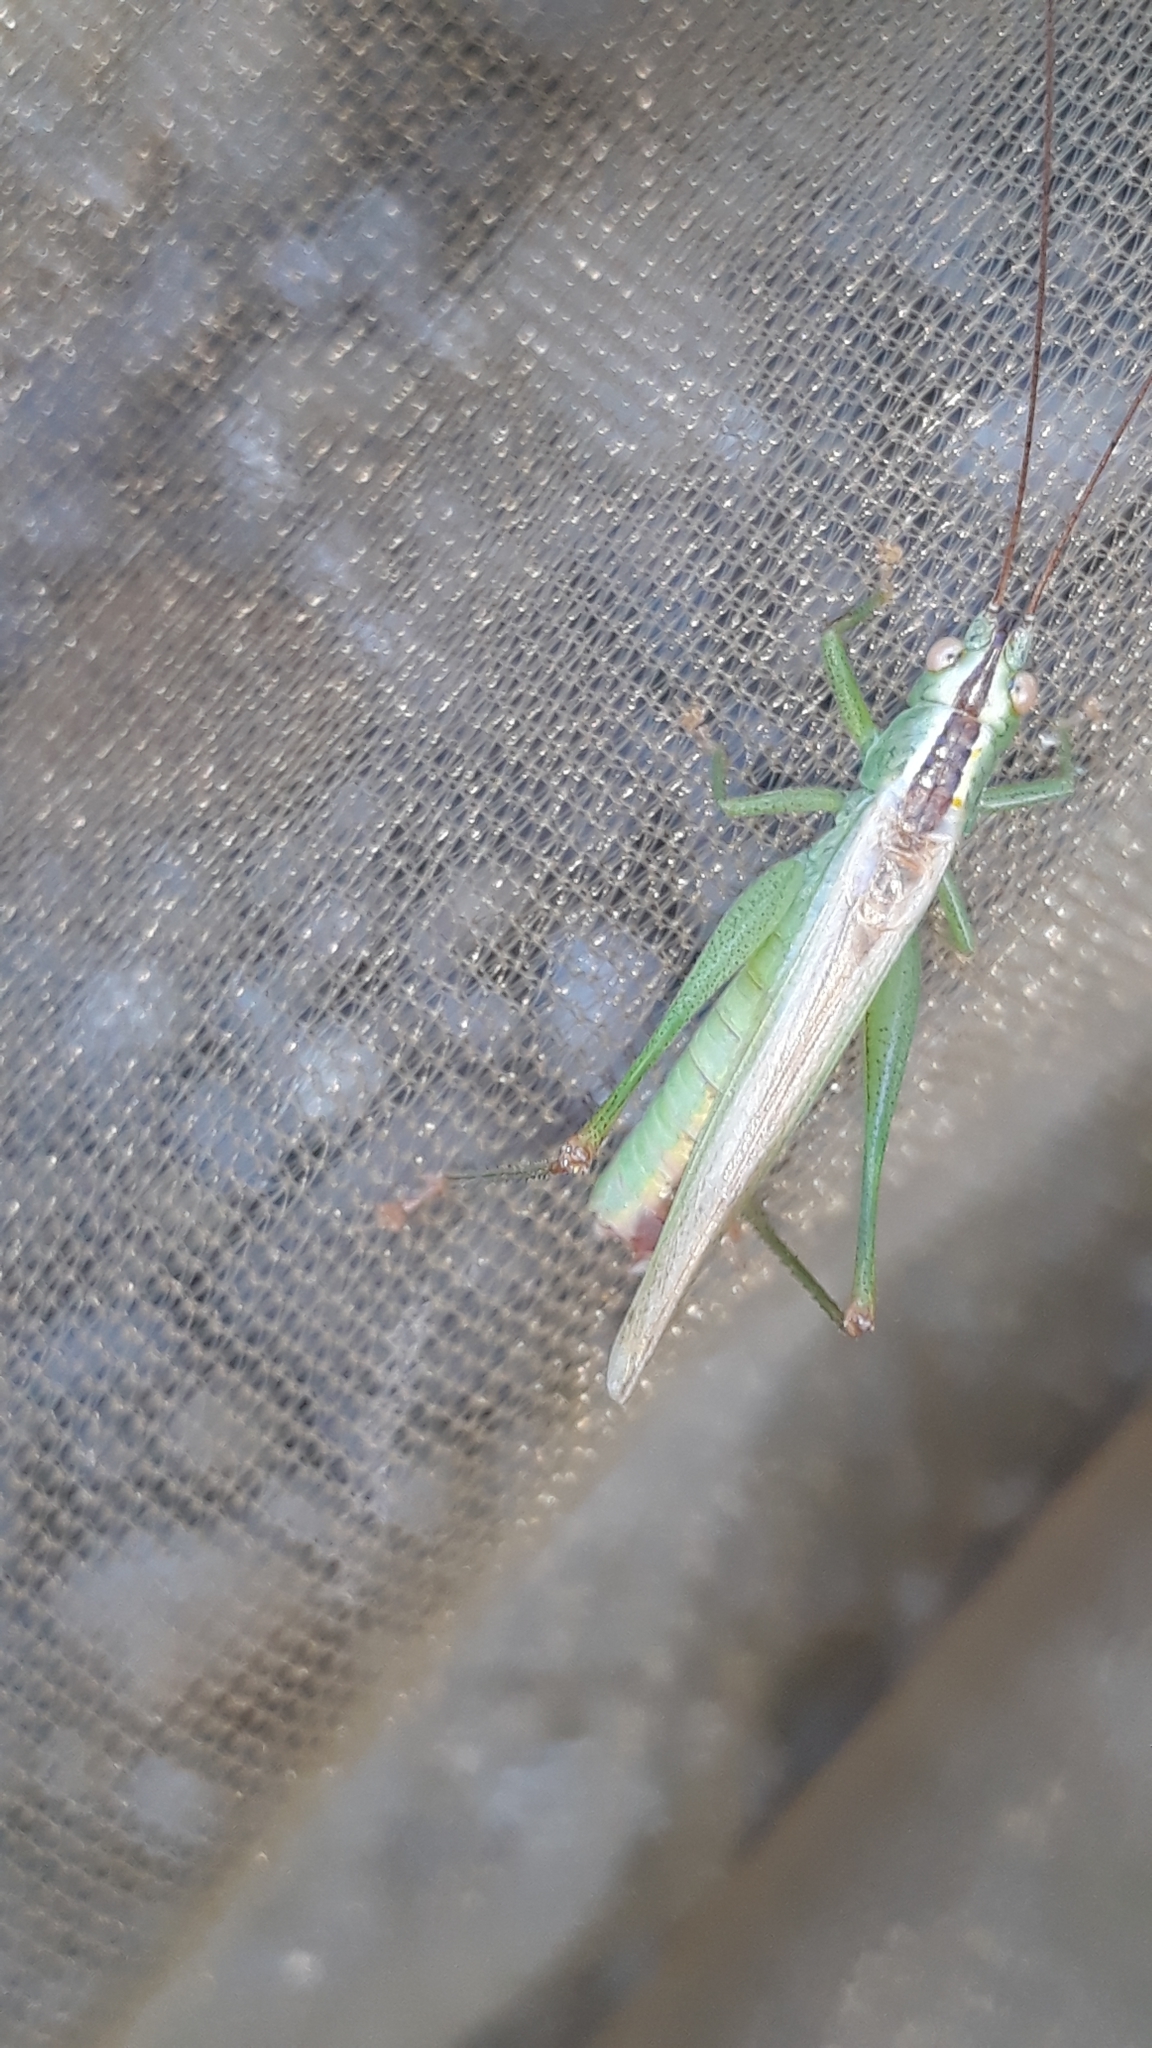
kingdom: Animalia
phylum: Arthropoda
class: Insecta
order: Orthoptera
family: Tettigoniidae
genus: Conocephalus
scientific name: Conocephalus fuscus
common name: Long-winged conehead
